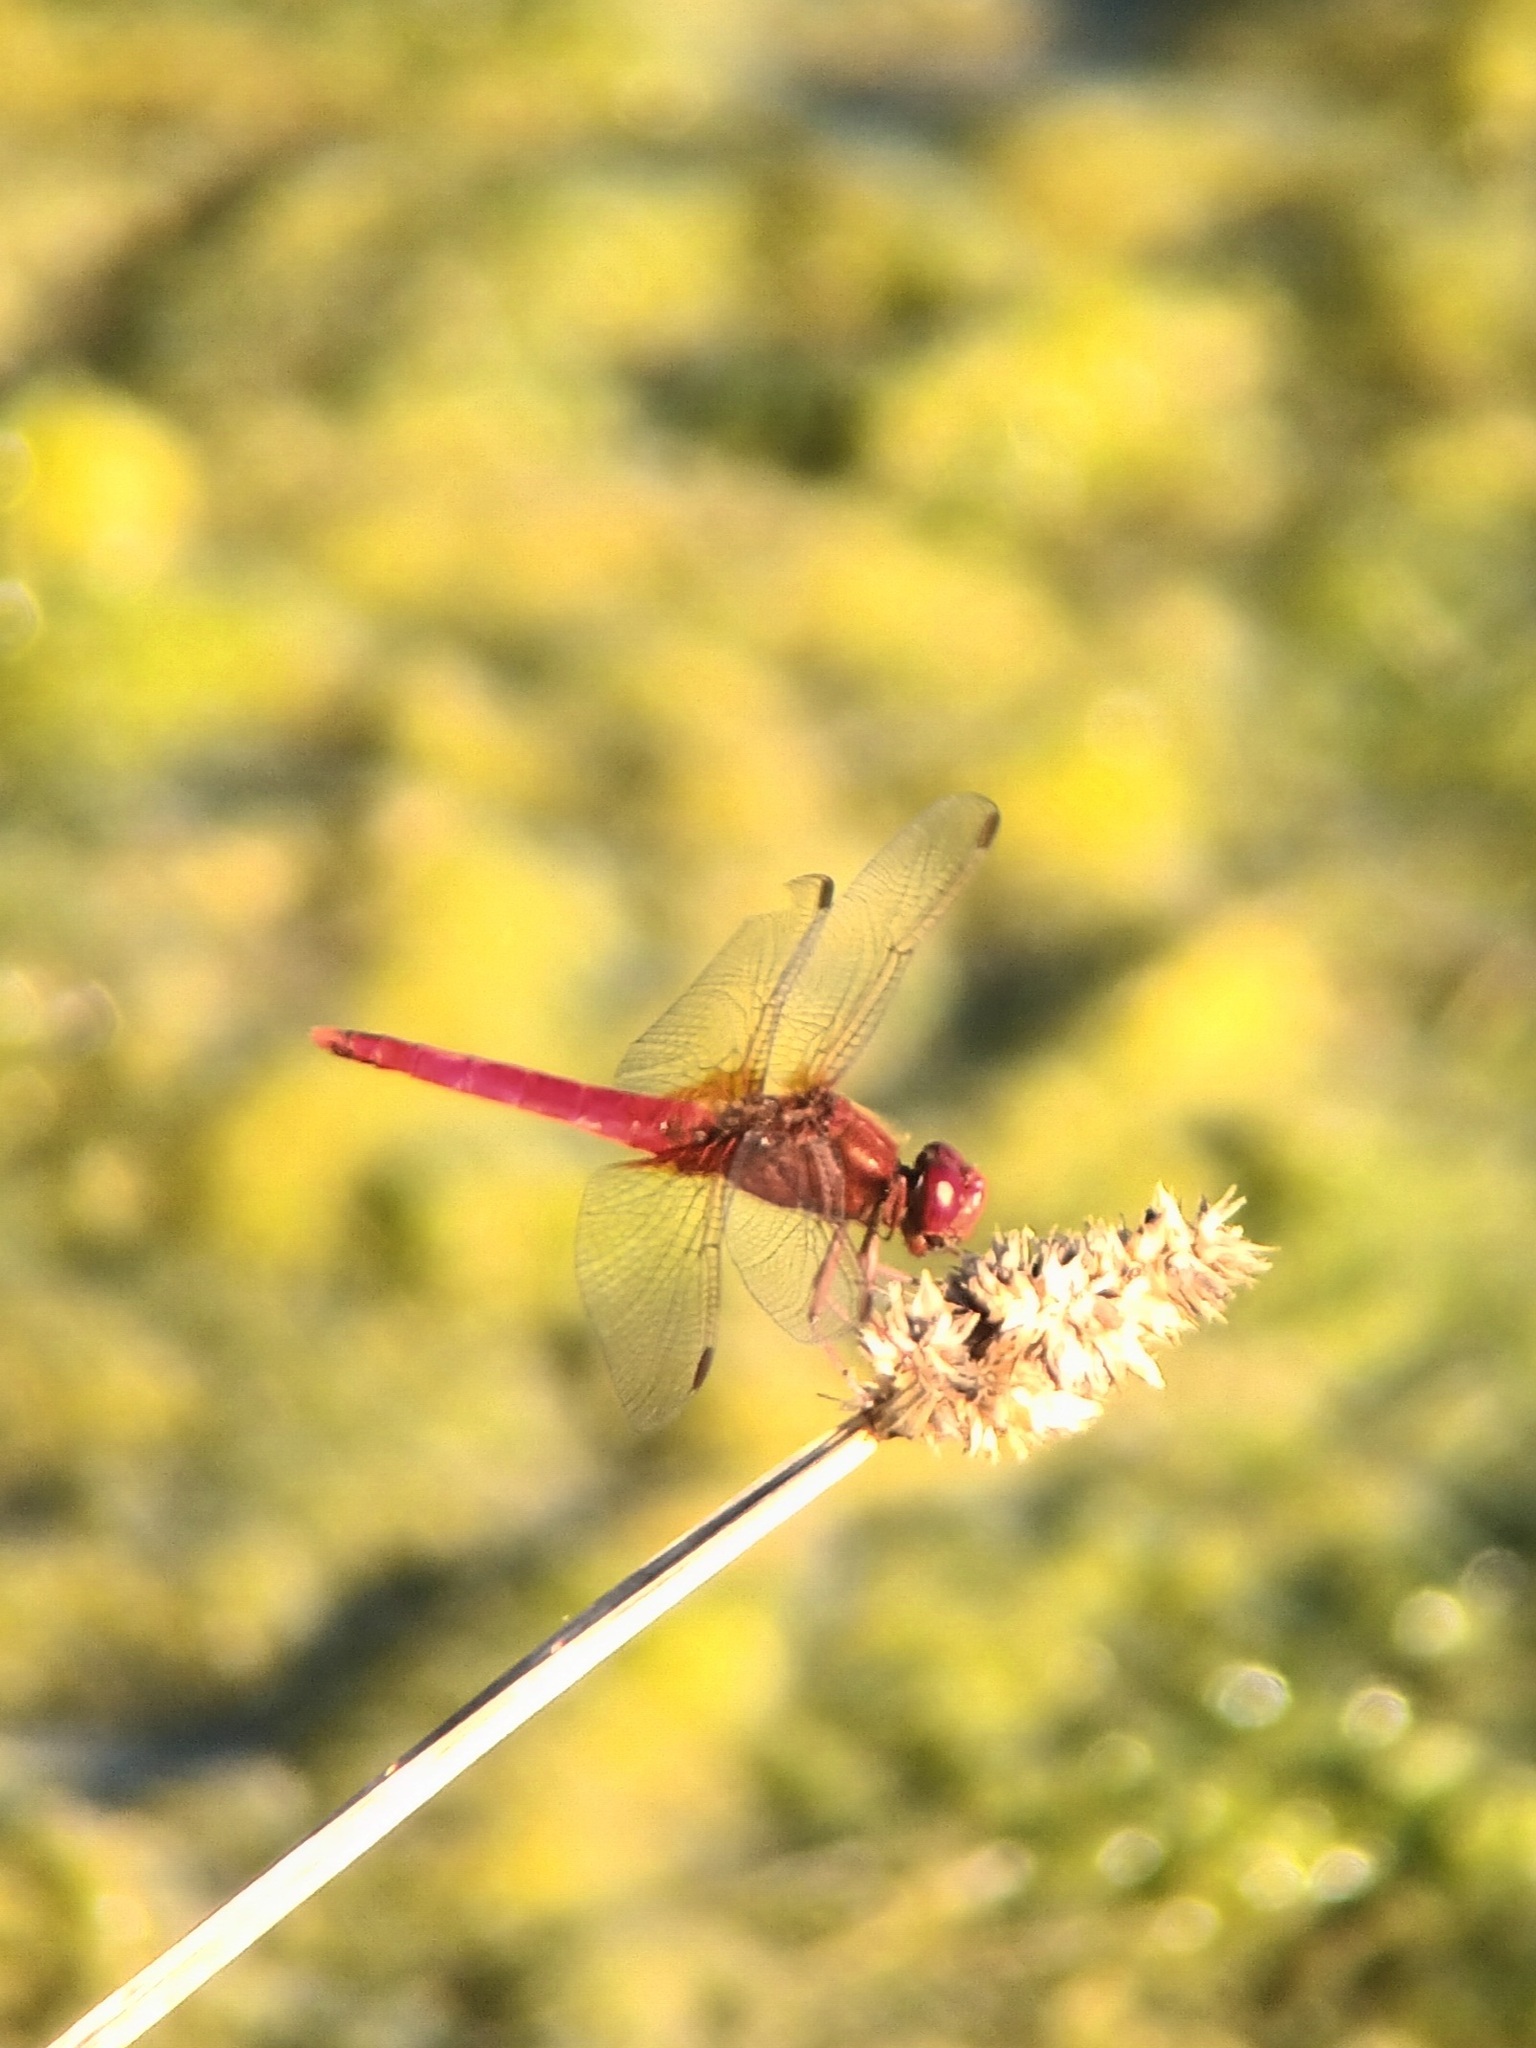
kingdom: Animalia
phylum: Arthropoda
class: Insecta
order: Odonata
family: Libellulidae
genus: Crocothemis
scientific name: Crocothemis erythraea
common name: Scarlet dragonfly
